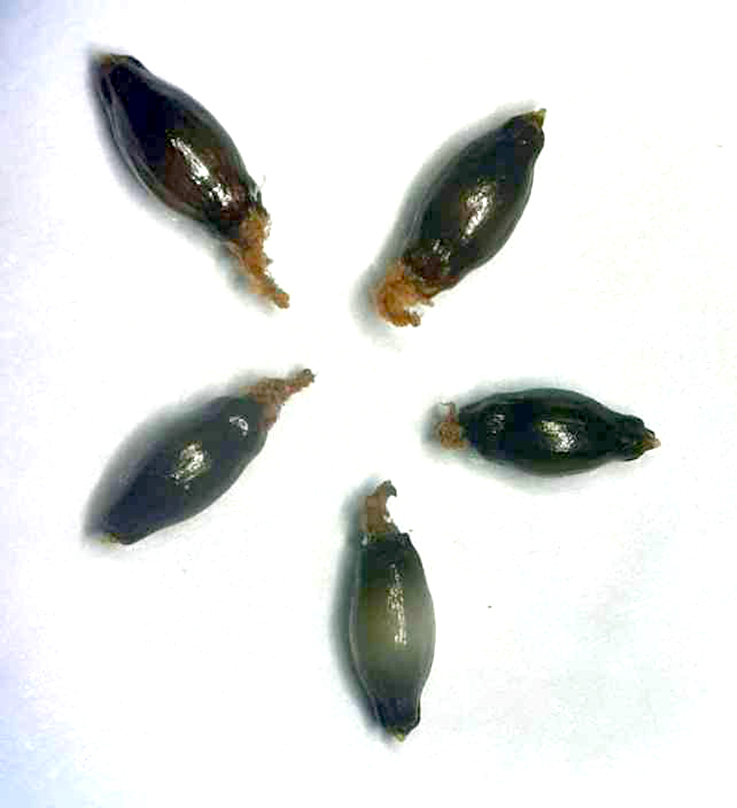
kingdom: Plantae
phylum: Tracheophyta
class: Liliopsida
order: Poales
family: Restionaceae
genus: Sporadanthus
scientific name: Sporadanthus traversii
